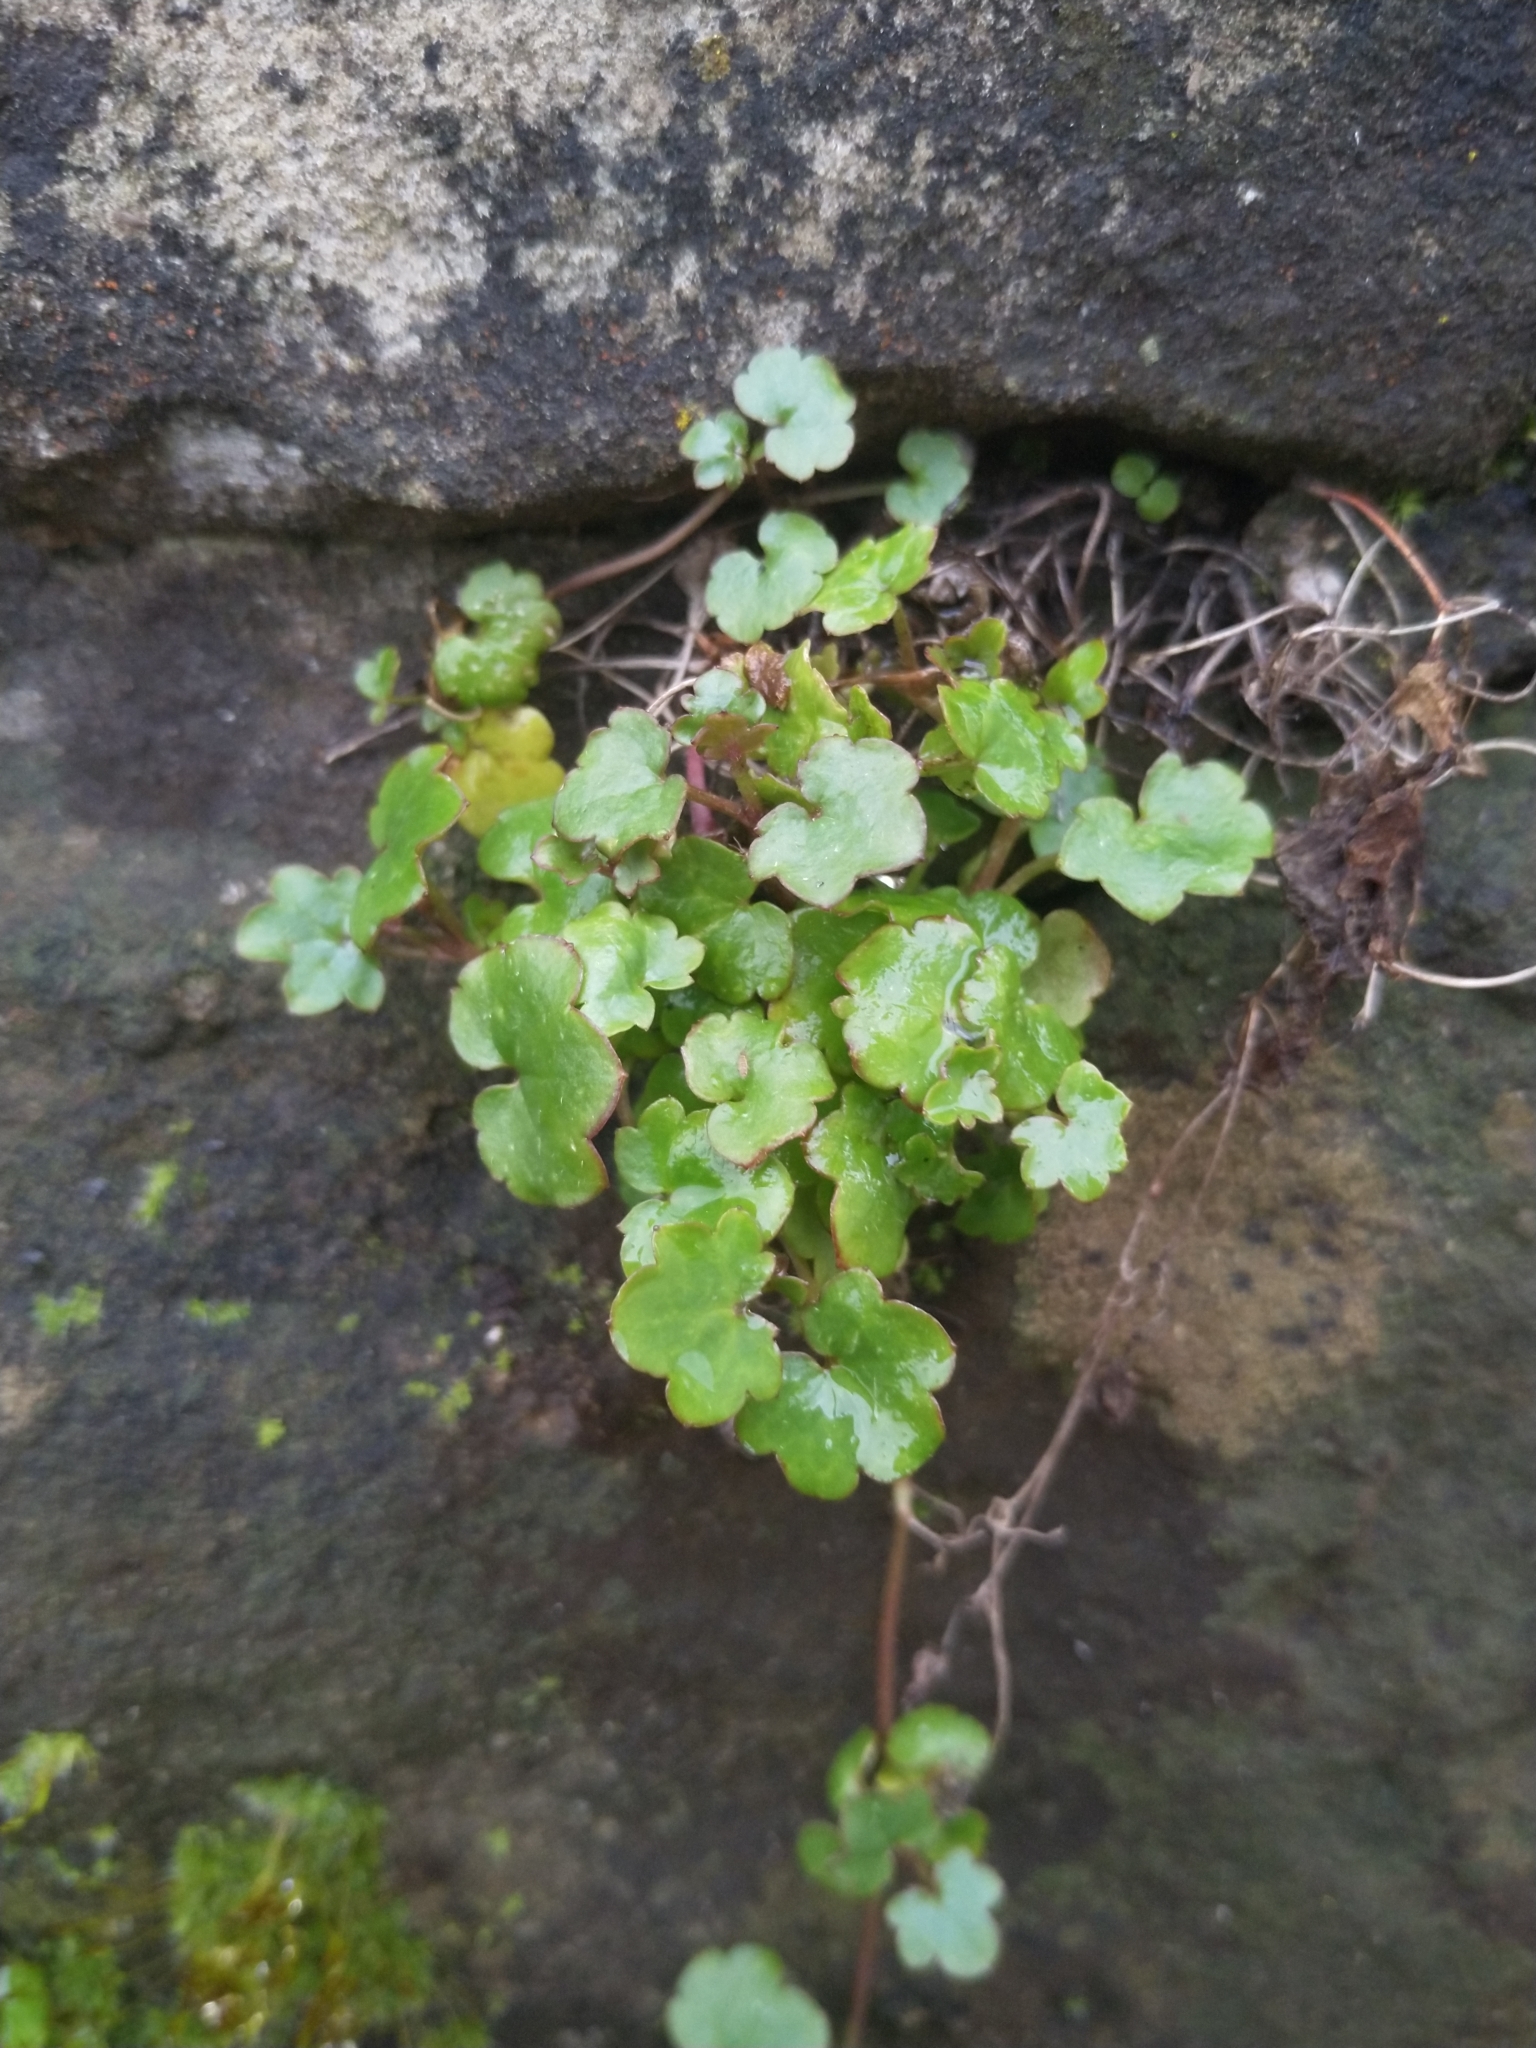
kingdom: Plantae
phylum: Tracheophyta
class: Magnoliopsida
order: Lamiales
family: Plantaginaceae
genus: Cymbalaria
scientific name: Cymbalaria muralis
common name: Ivy-leaved toadflax
